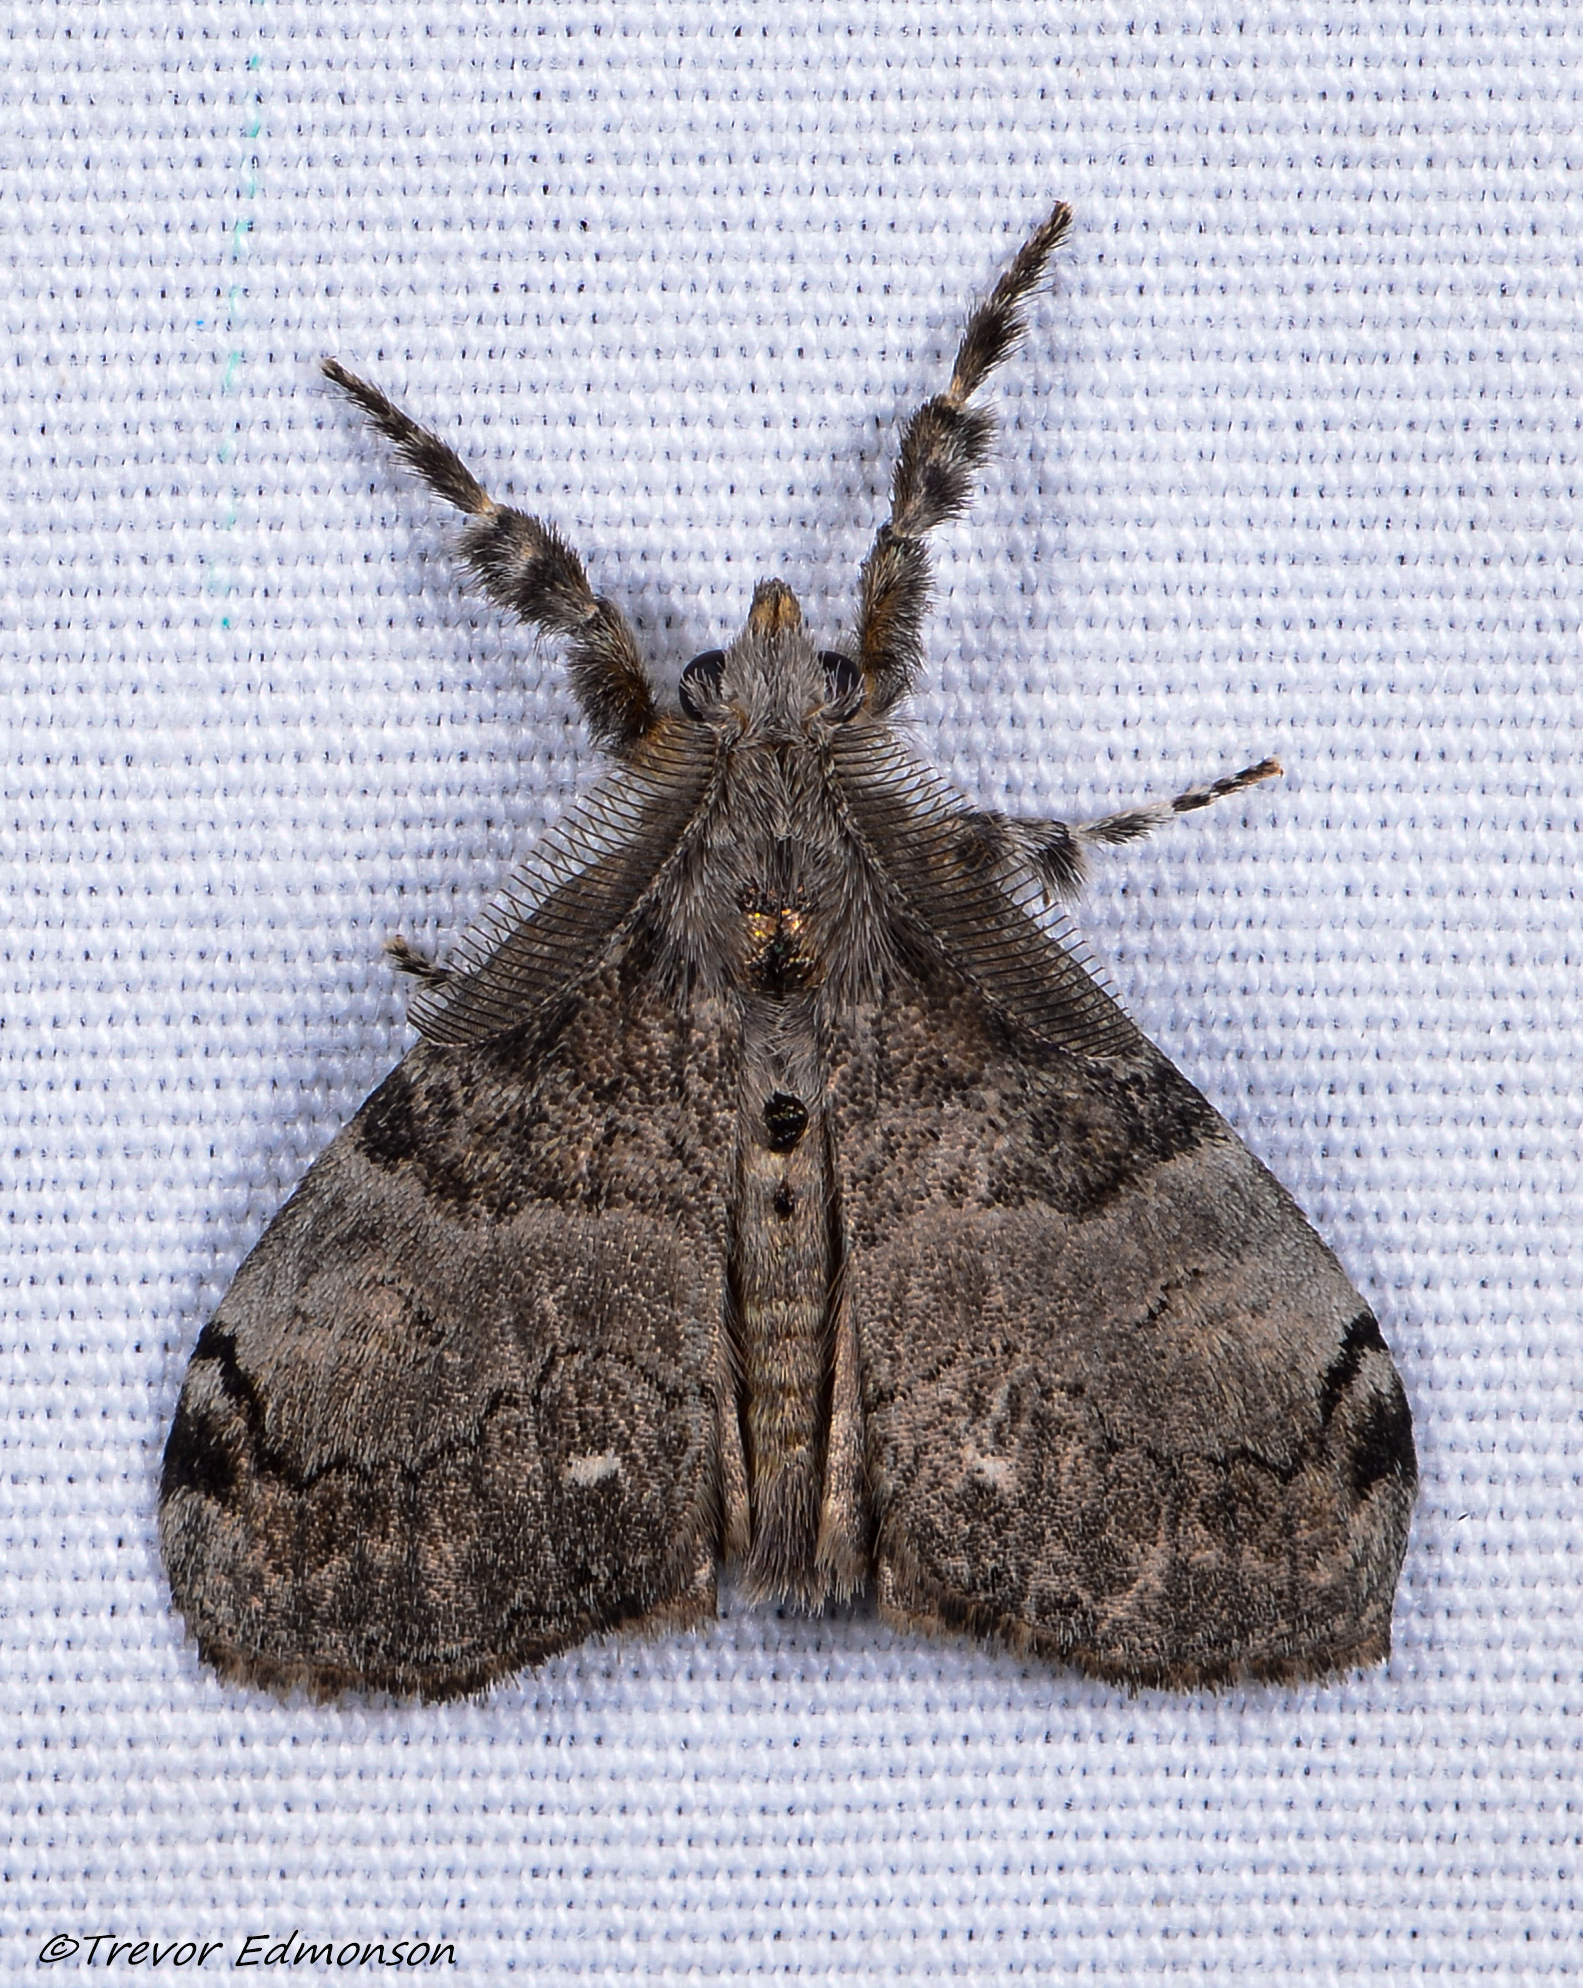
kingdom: Animalia
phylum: Arthropoda
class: Insecta
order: Lepidoptera
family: Erebidae
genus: Orgyia
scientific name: Orgyia leucostigma
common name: White-marked tussock moth
